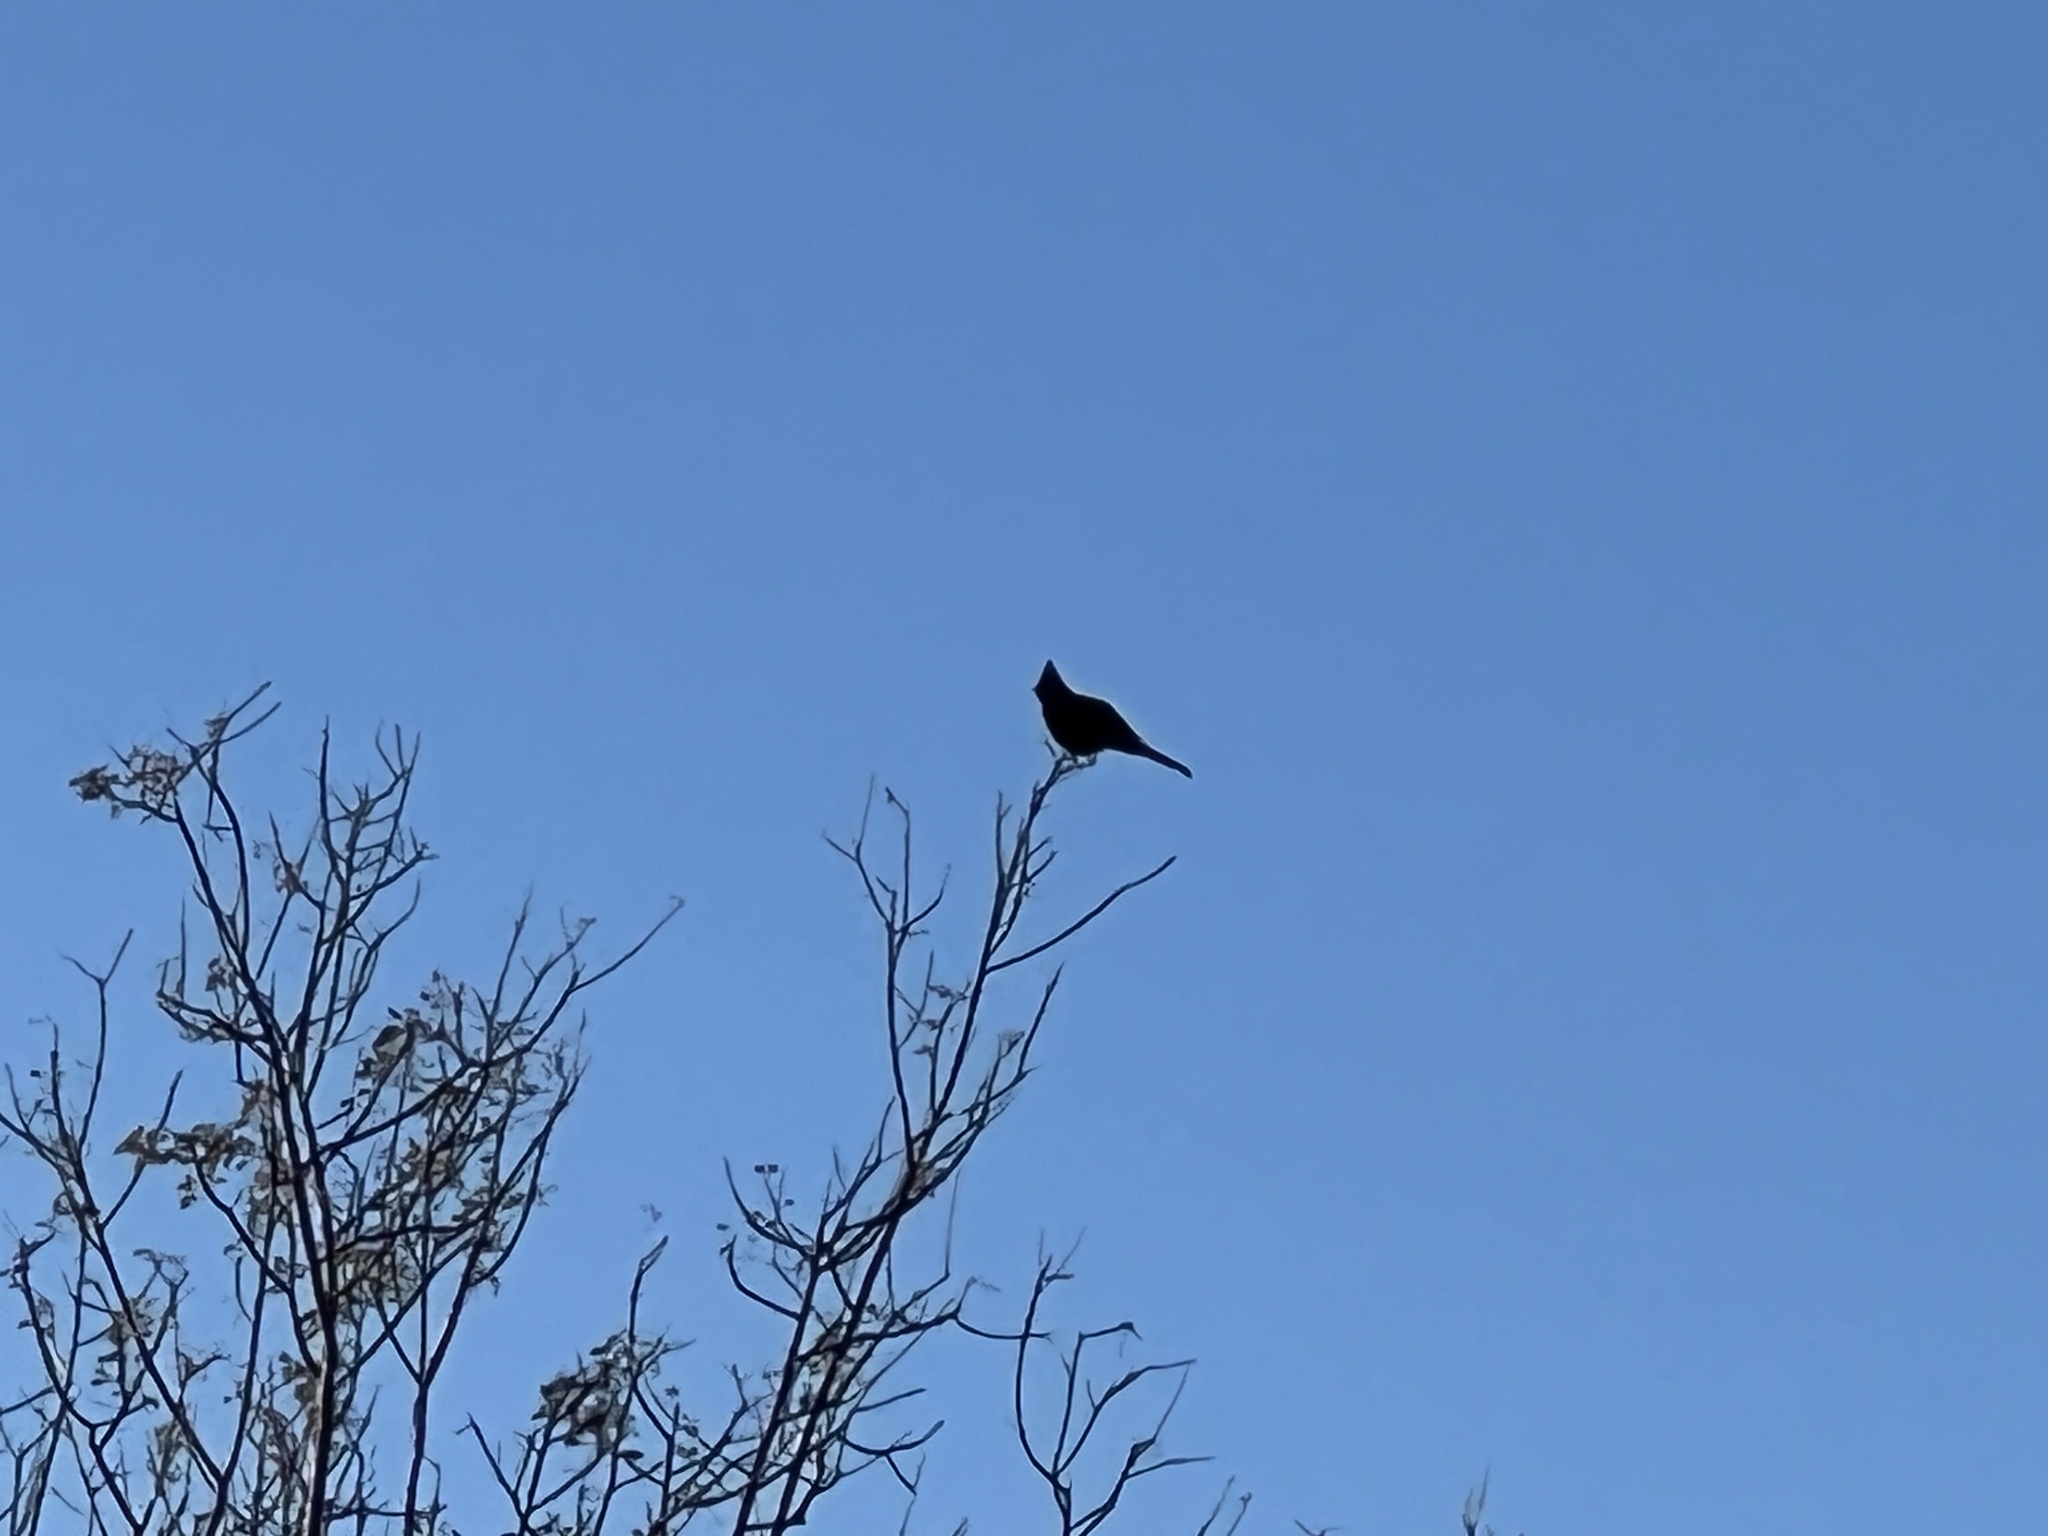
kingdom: Animalia
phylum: Chordata
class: Aves
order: Passeriformes
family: Ptilogonatidae
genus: Phainopepla
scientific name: Phainopepla nitens
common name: Phainopepla
